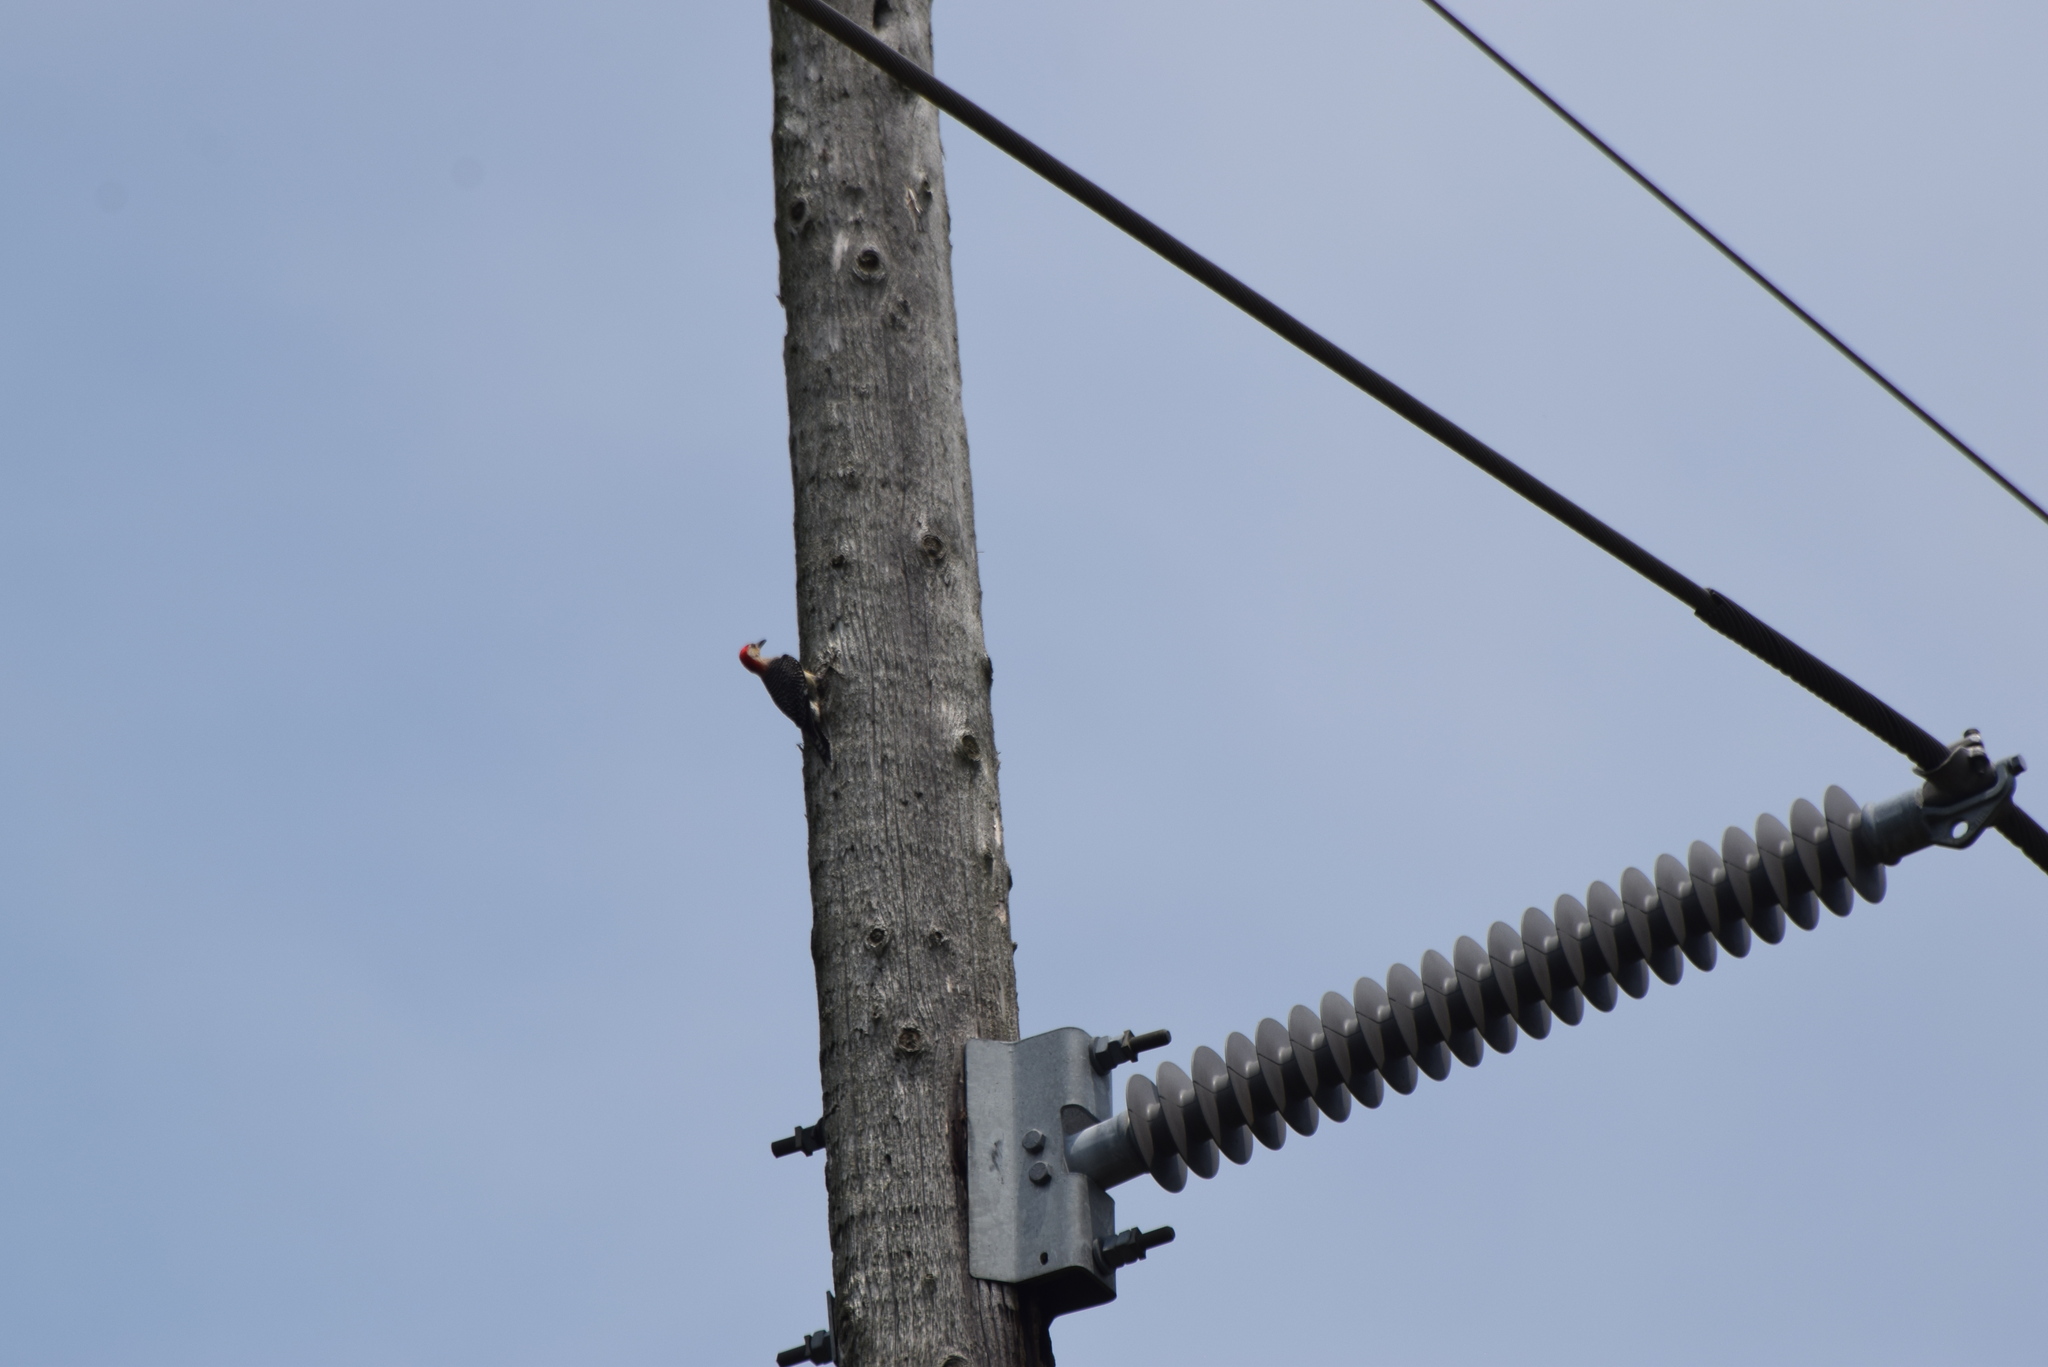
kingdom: Animalia
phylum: Chordata
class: Aves
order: Piciformes
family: Picidae
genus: Melanerpes
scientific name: Melanerpes carolinus
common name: Red-bellied woodpecker
